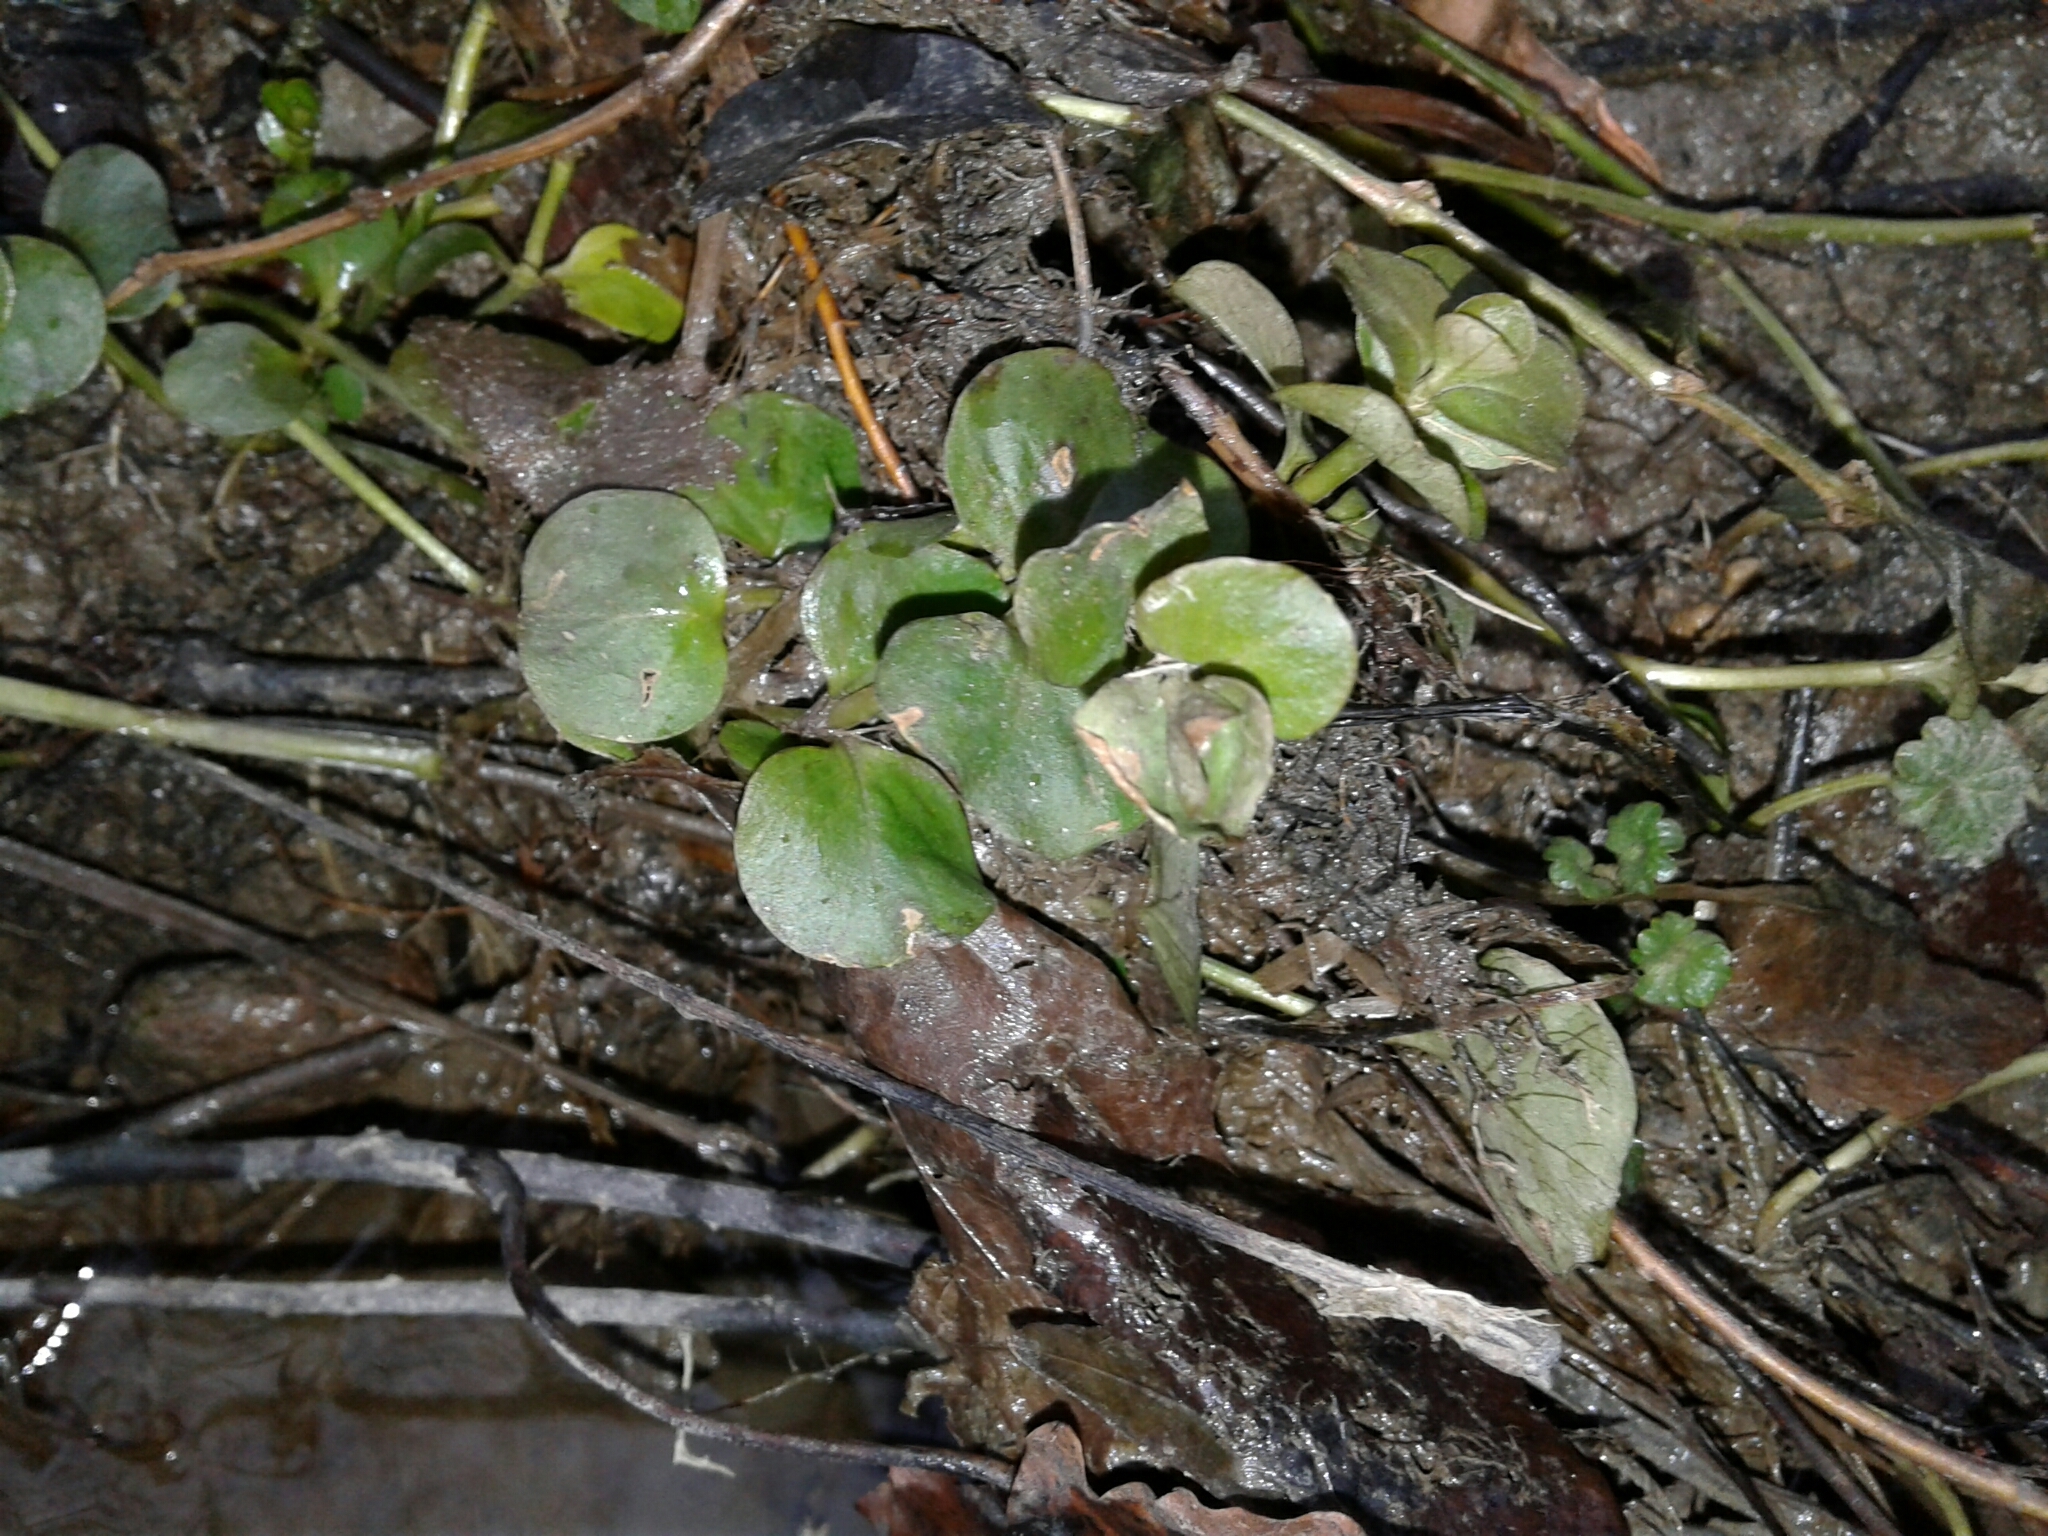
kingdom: Plantae
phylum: Tracheophyta
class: Magnoliopsida
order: Ericales
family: Primulaceae
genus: Lysimachia
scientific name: Lysimachia nummularia
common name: Moneywort
